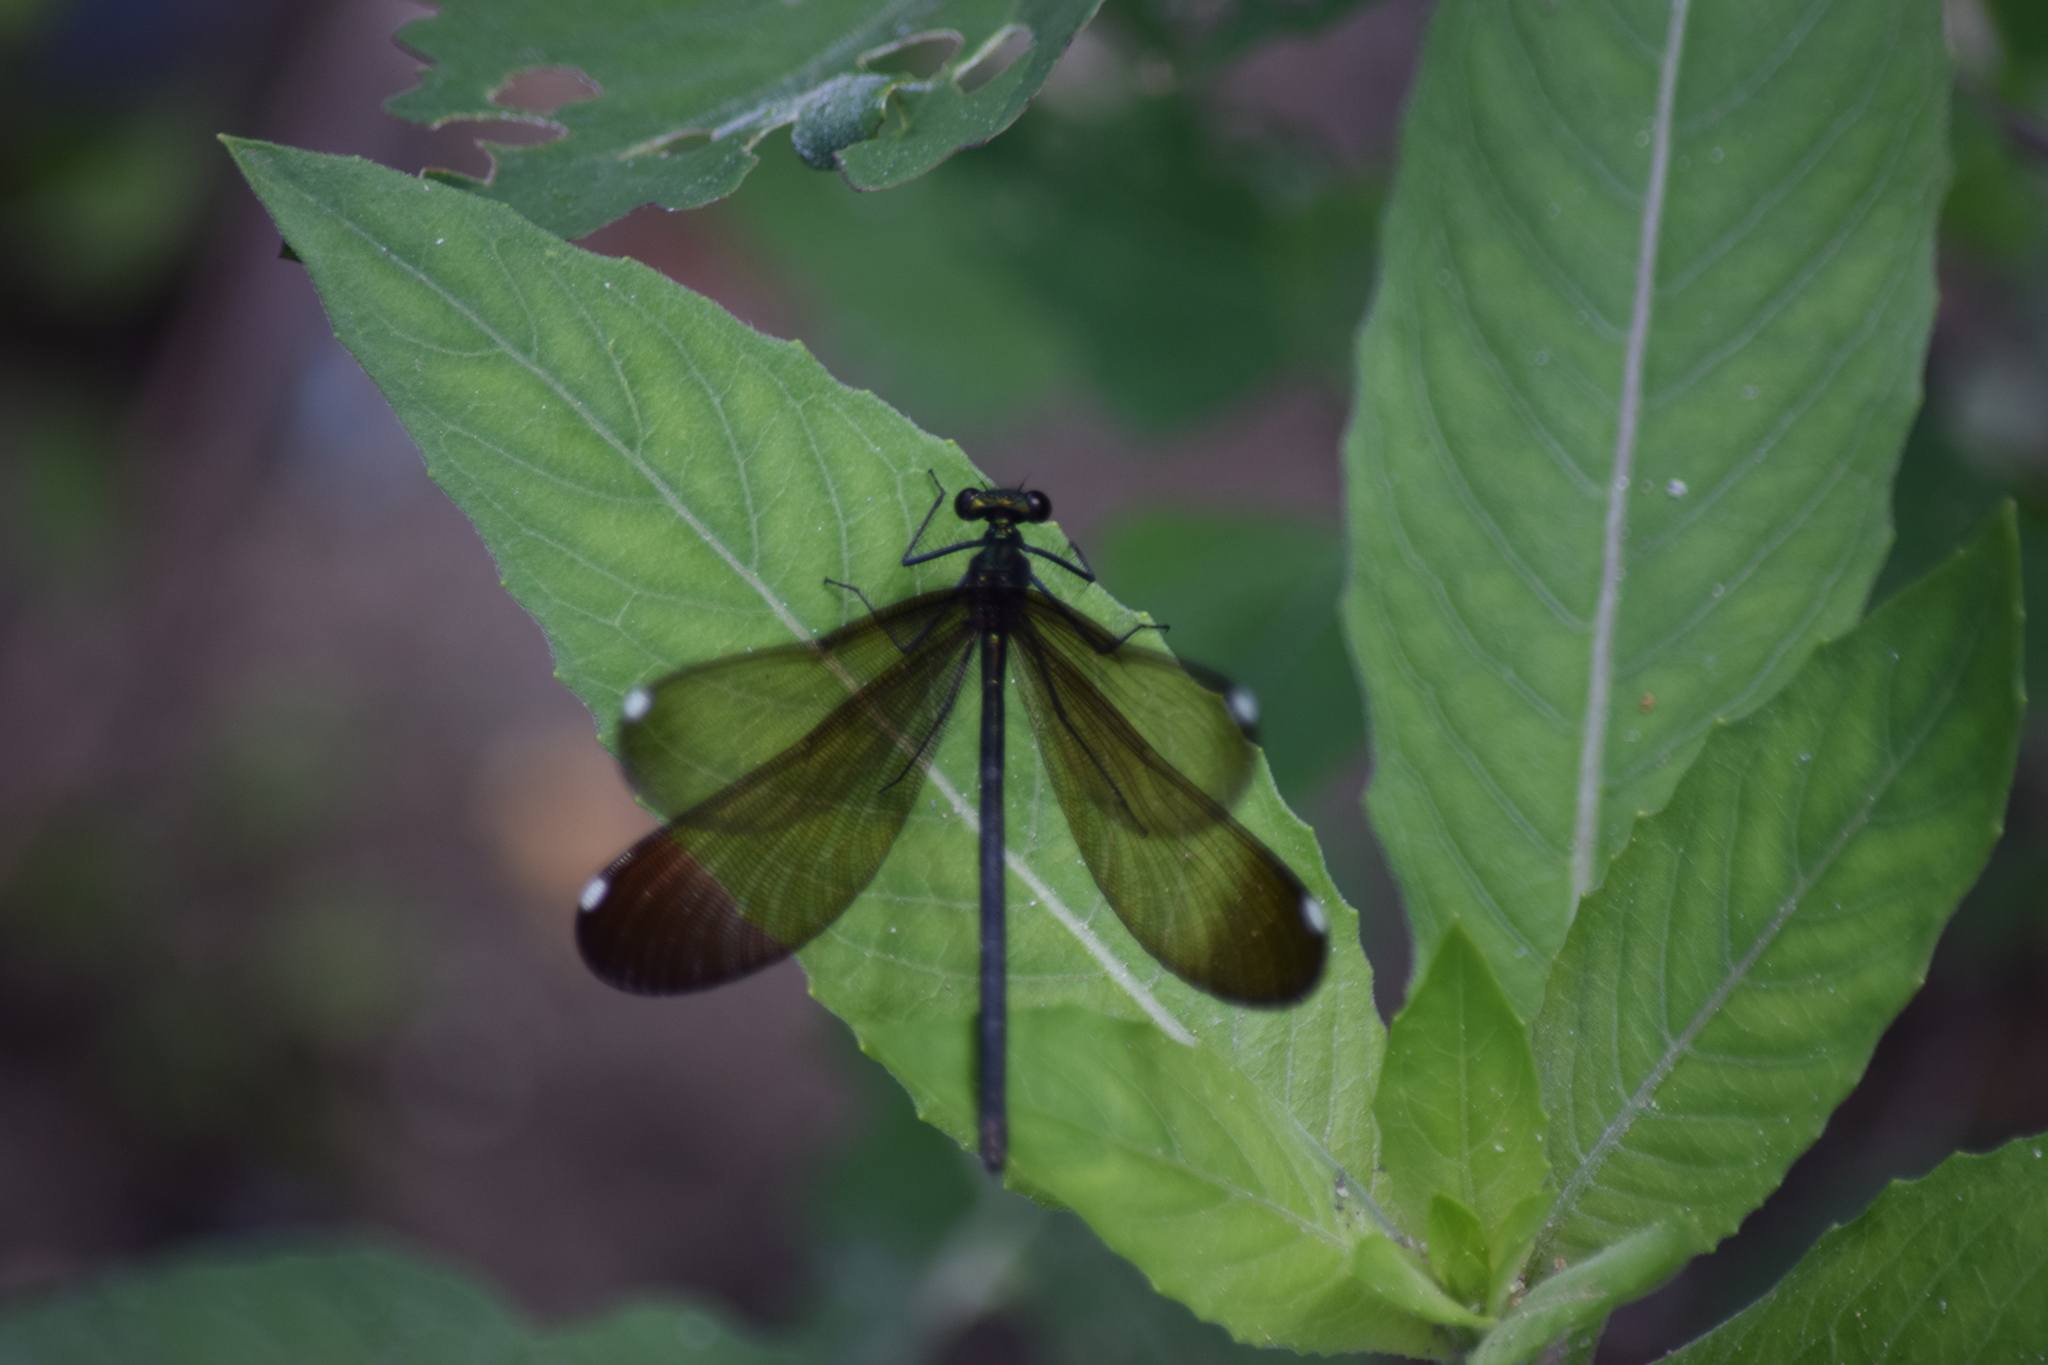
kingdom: Animalia
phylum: Arthropoda
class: Insecta
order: Odonata
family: Calopterygidae
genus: Calopteryx
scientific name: Calopteryx maculata
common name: Ebony jewelwing
